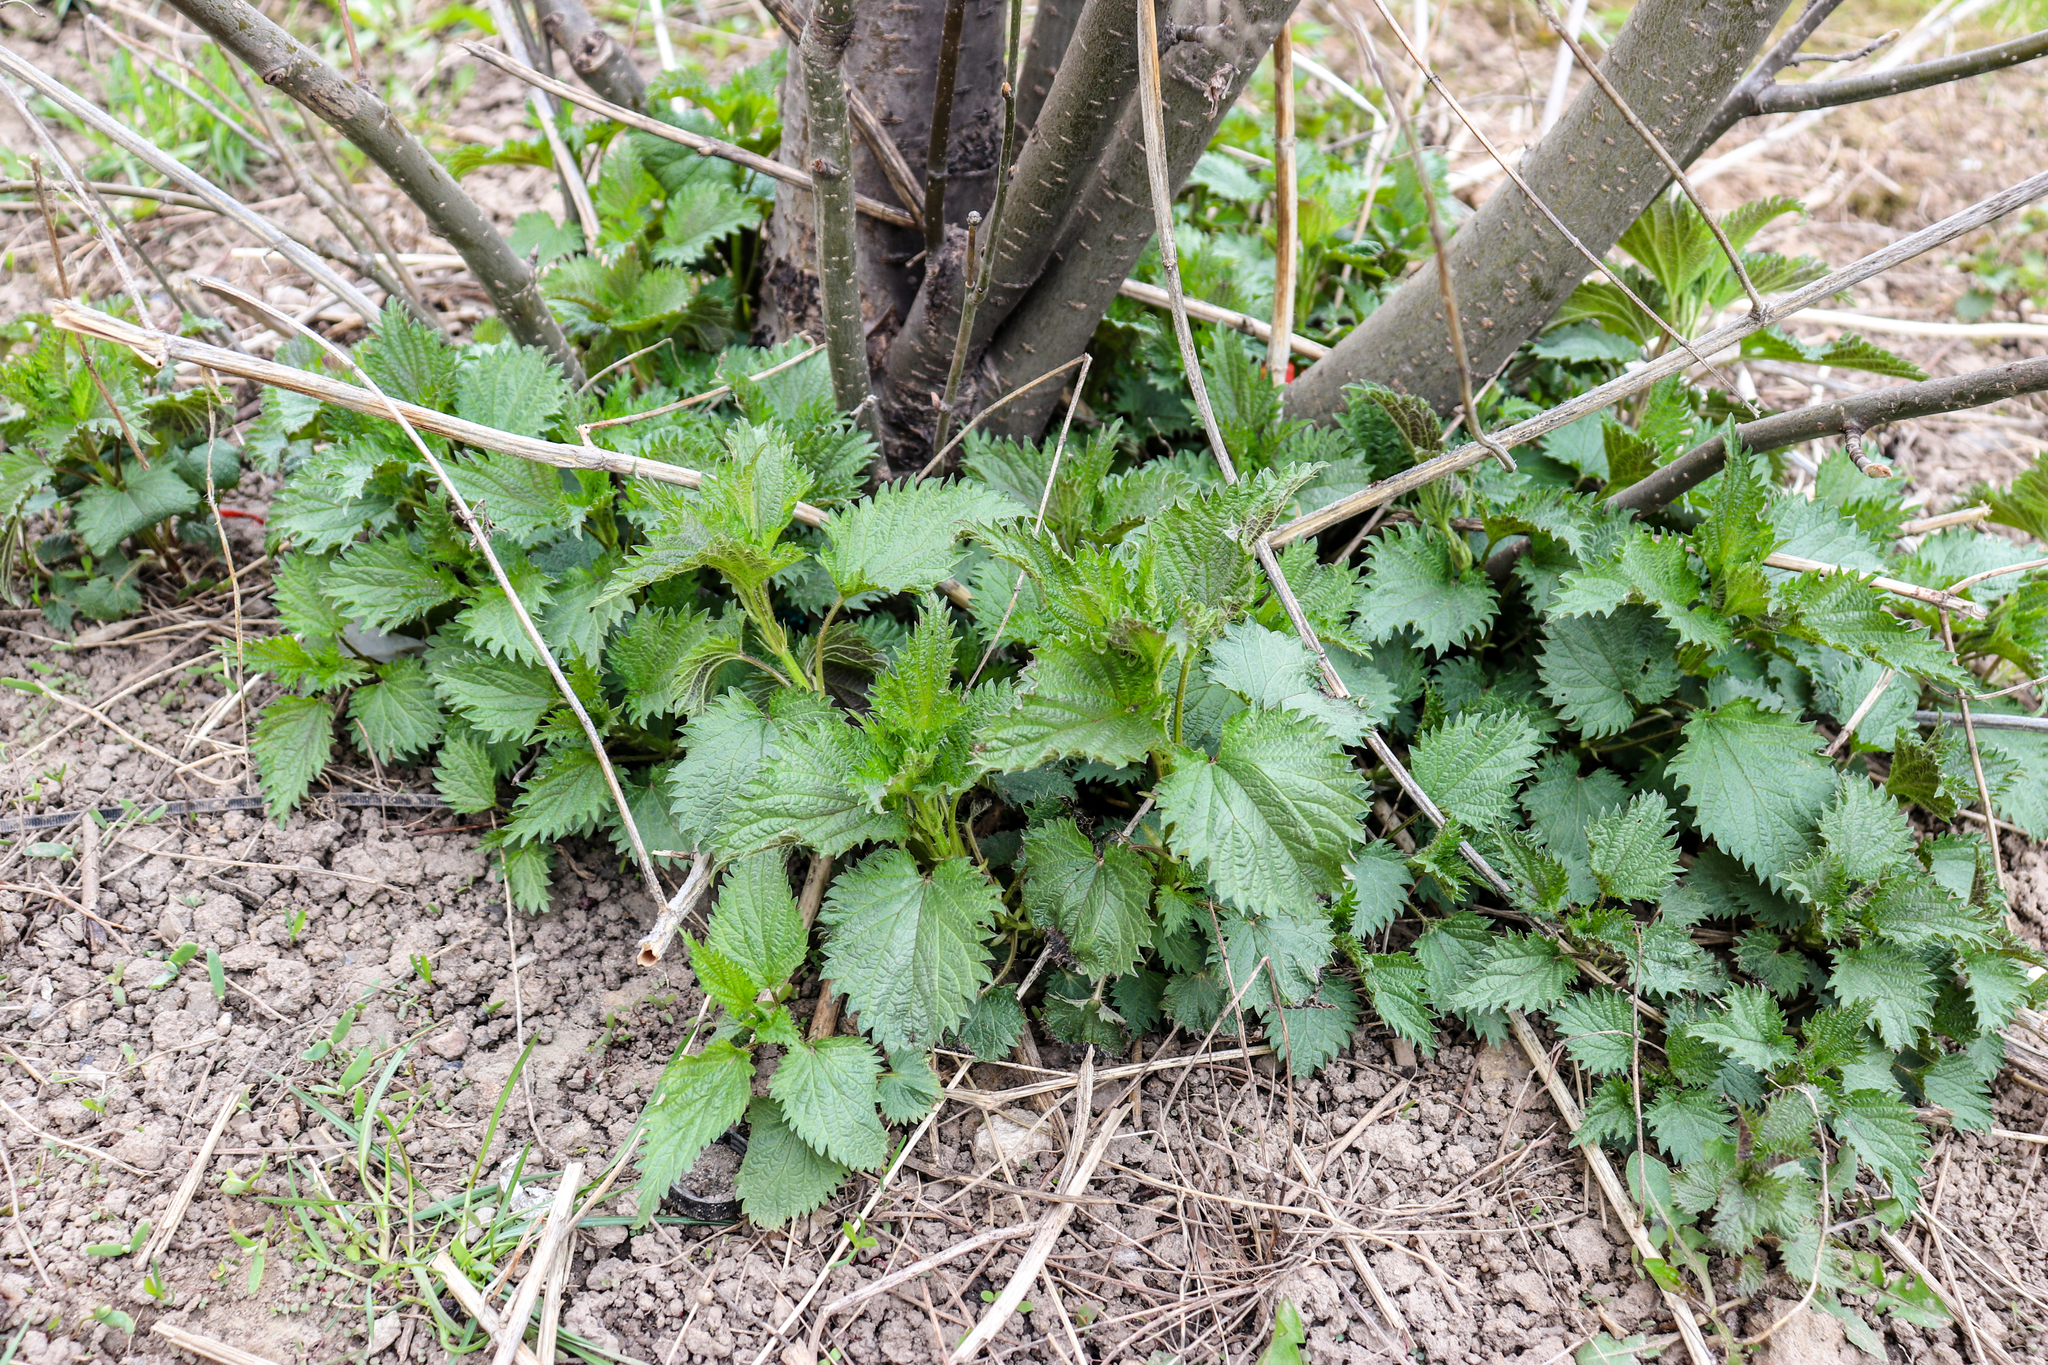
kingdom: Plantae
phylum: Tracheophyta
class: Magnoliopsida
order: Rosales
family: Urticaceae
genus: Urtica
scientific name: Urtica dioica
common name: Common nettle
